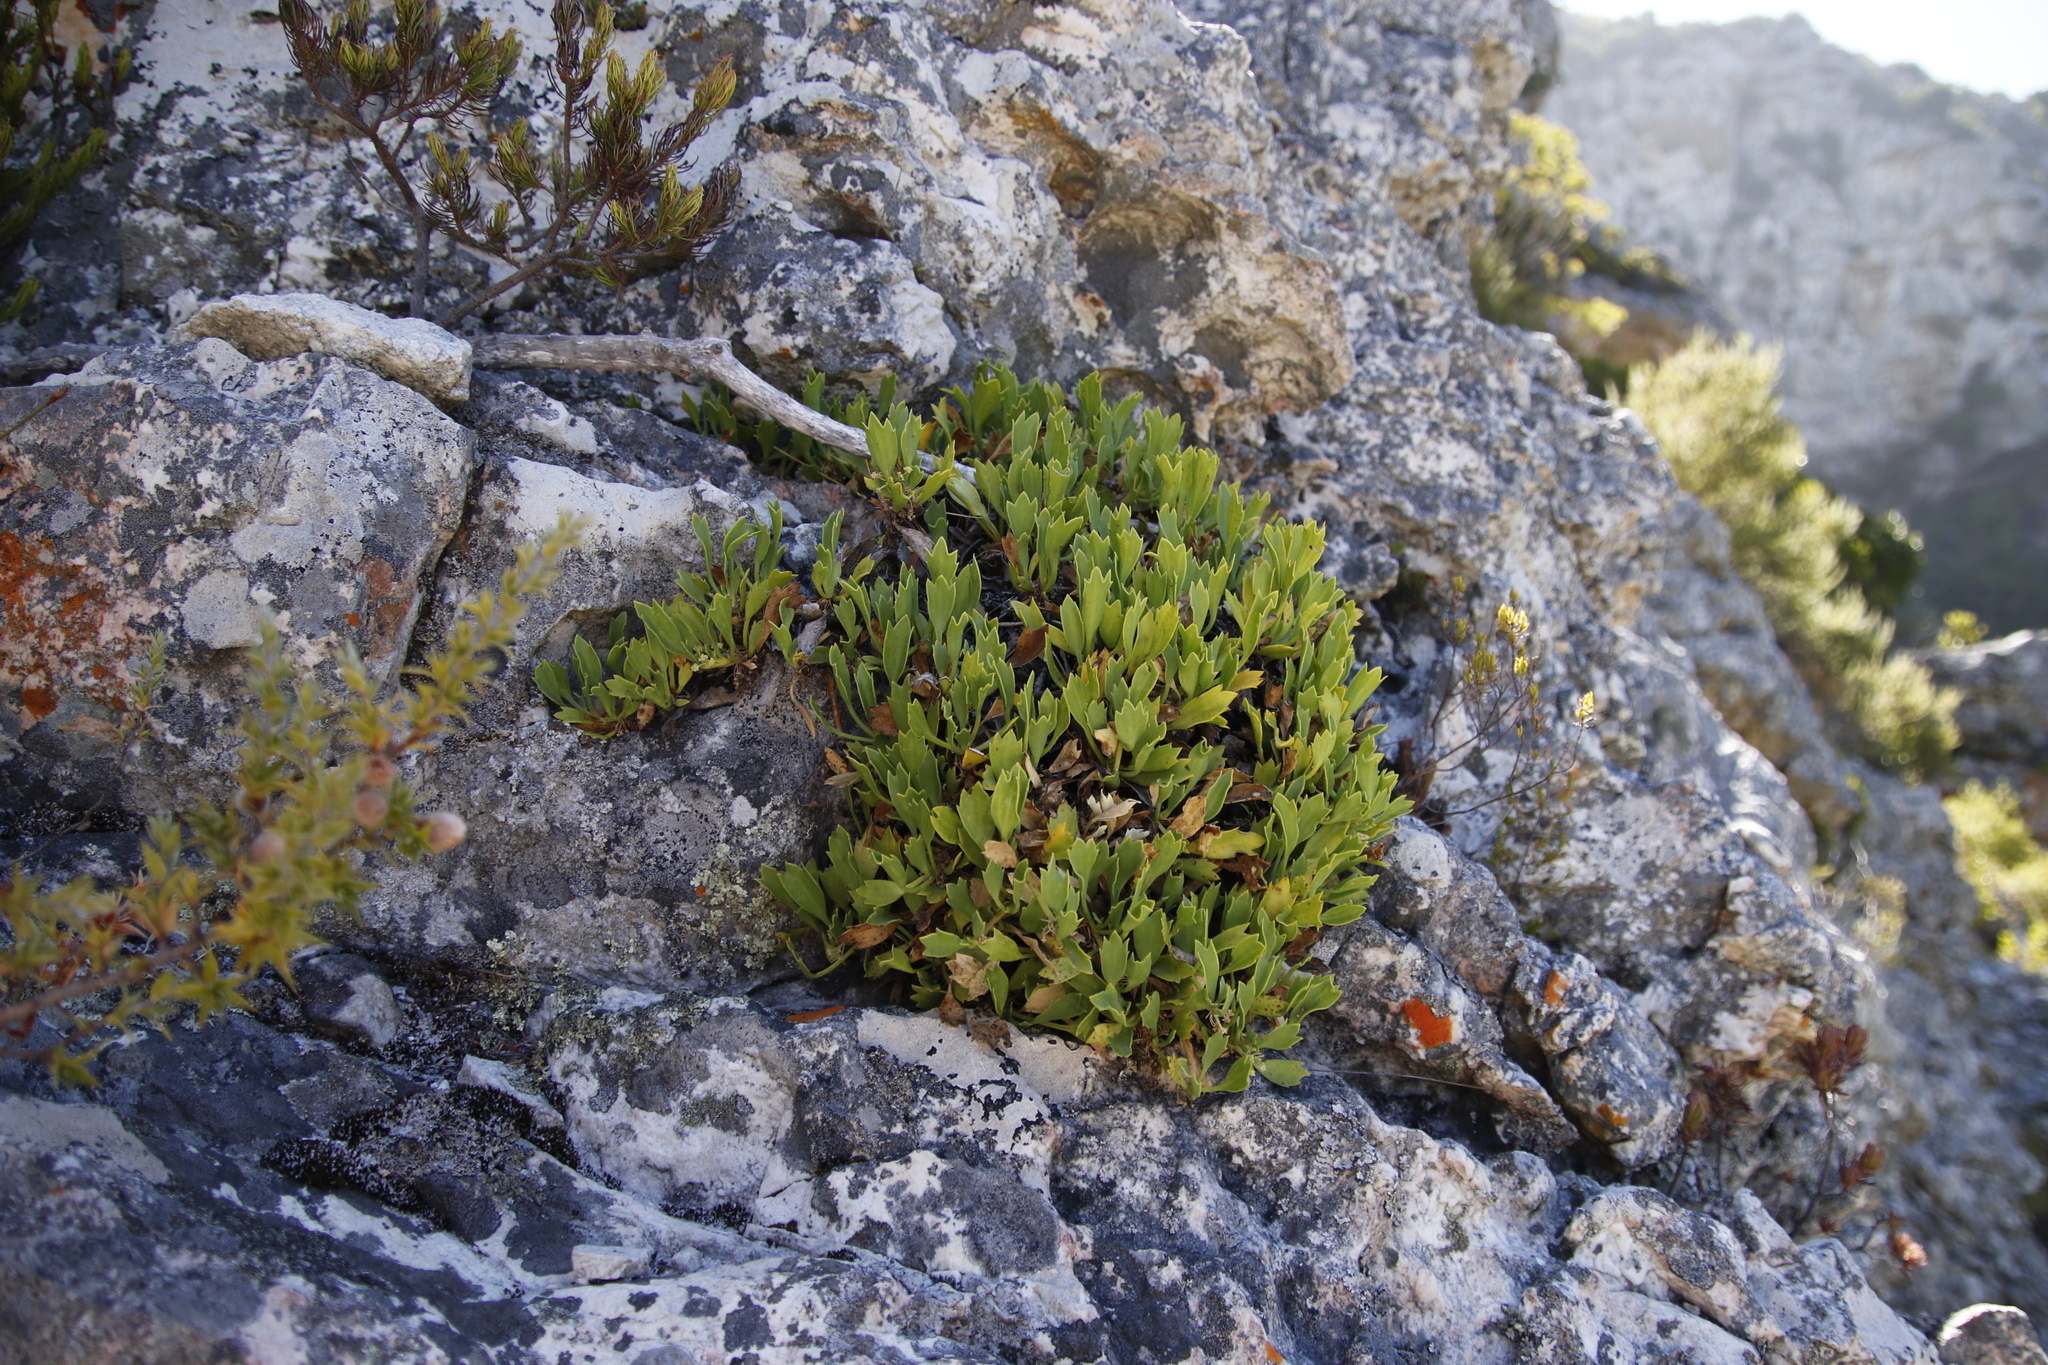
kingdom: Plantae
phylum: Tracheophyta
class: Magnoliopsida
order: Apiales
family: Apiaceae
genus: Centella
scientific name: Centella triloba
